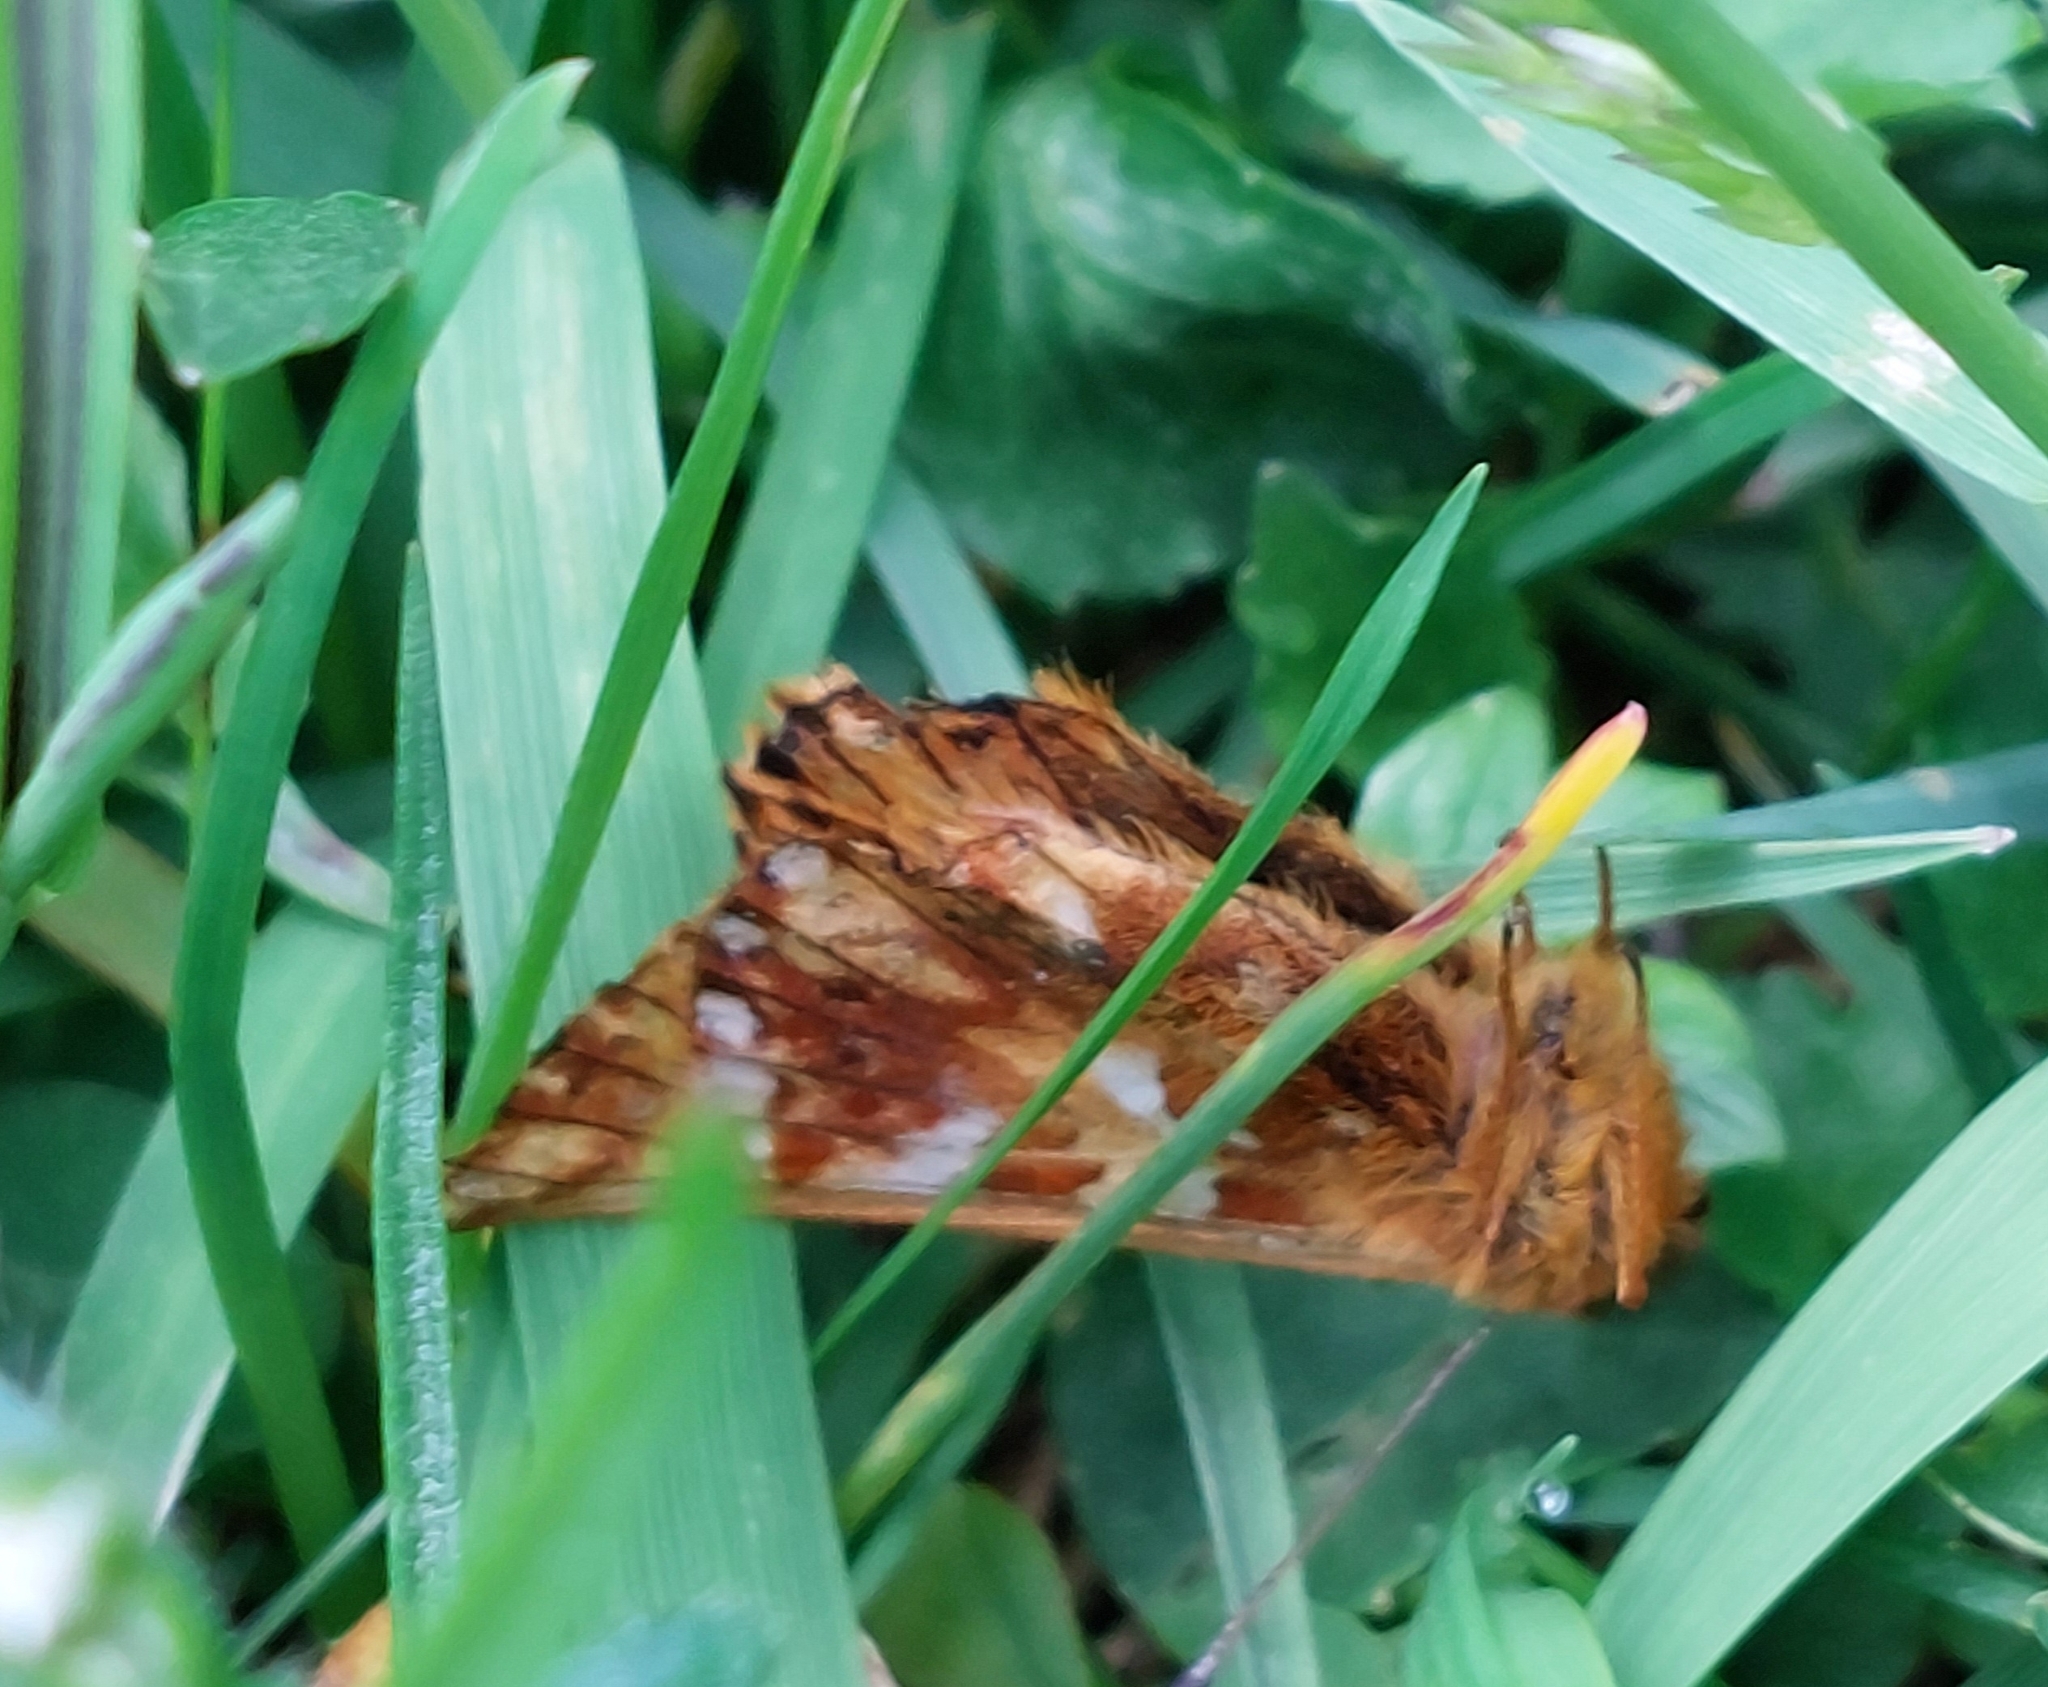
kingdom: Animalia
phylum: Arthropoda
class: Insecta
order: Lepidoptera
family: Nymphalidae
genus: Boloria
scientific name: Boloria pales
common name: Shepherd's fritillary
